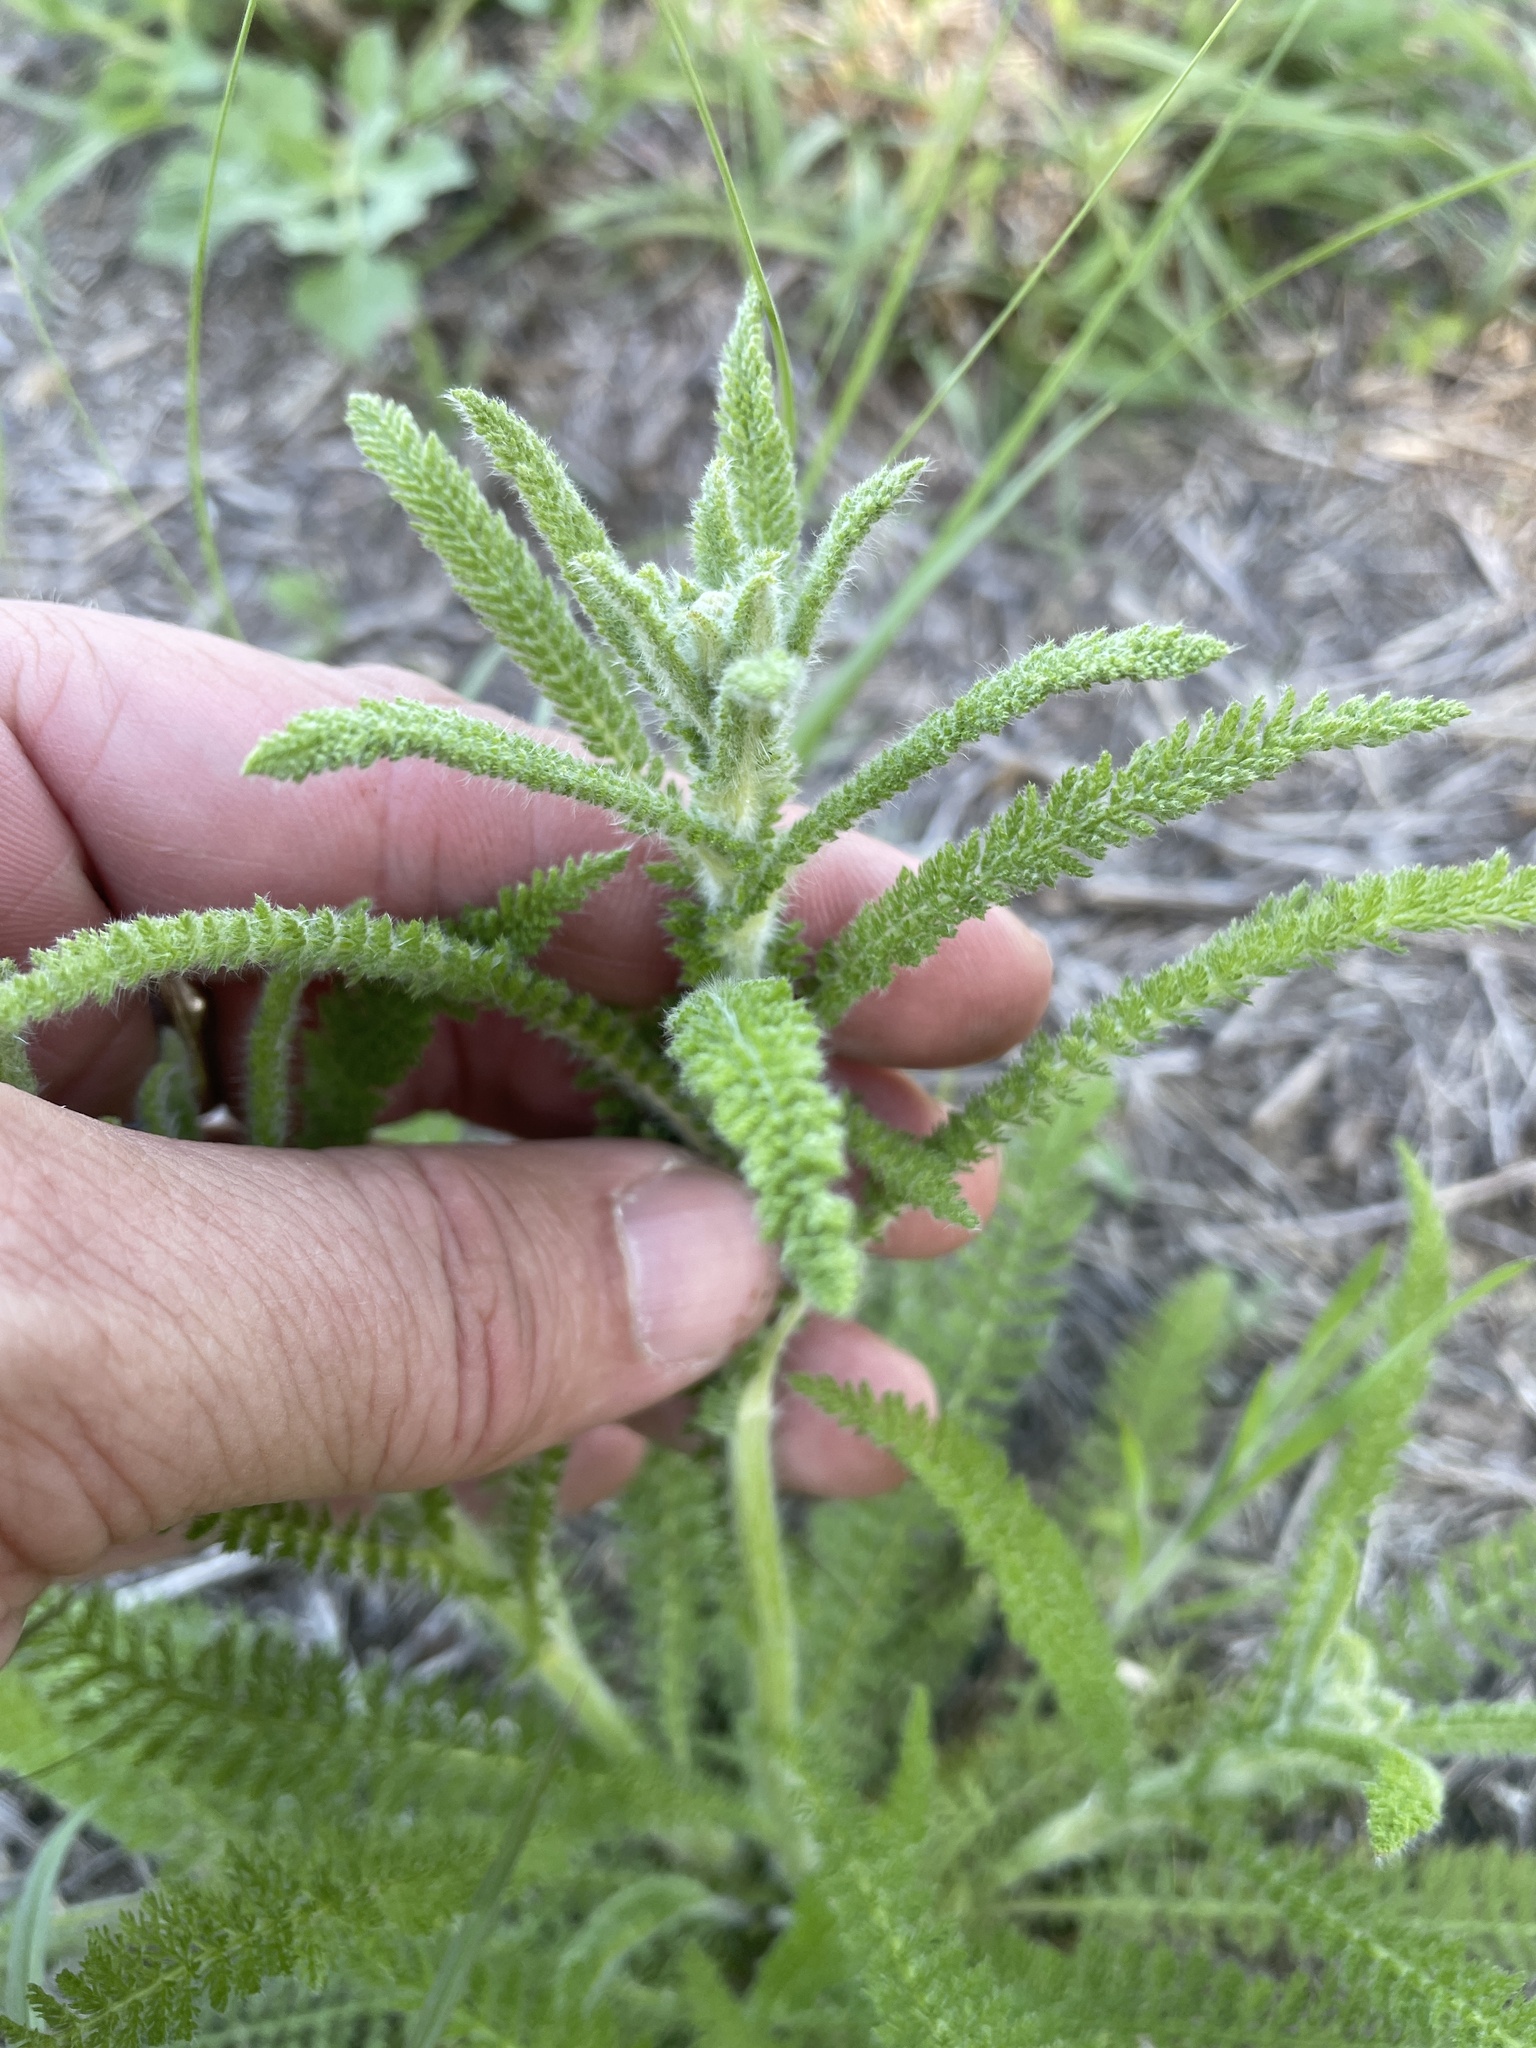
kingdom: Plantae
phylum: Tracheophyta
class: Magnoliopsida
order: Asterales
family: Asteraceae
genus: Achillea
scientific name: Achillea millefolium
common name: Yarrow
